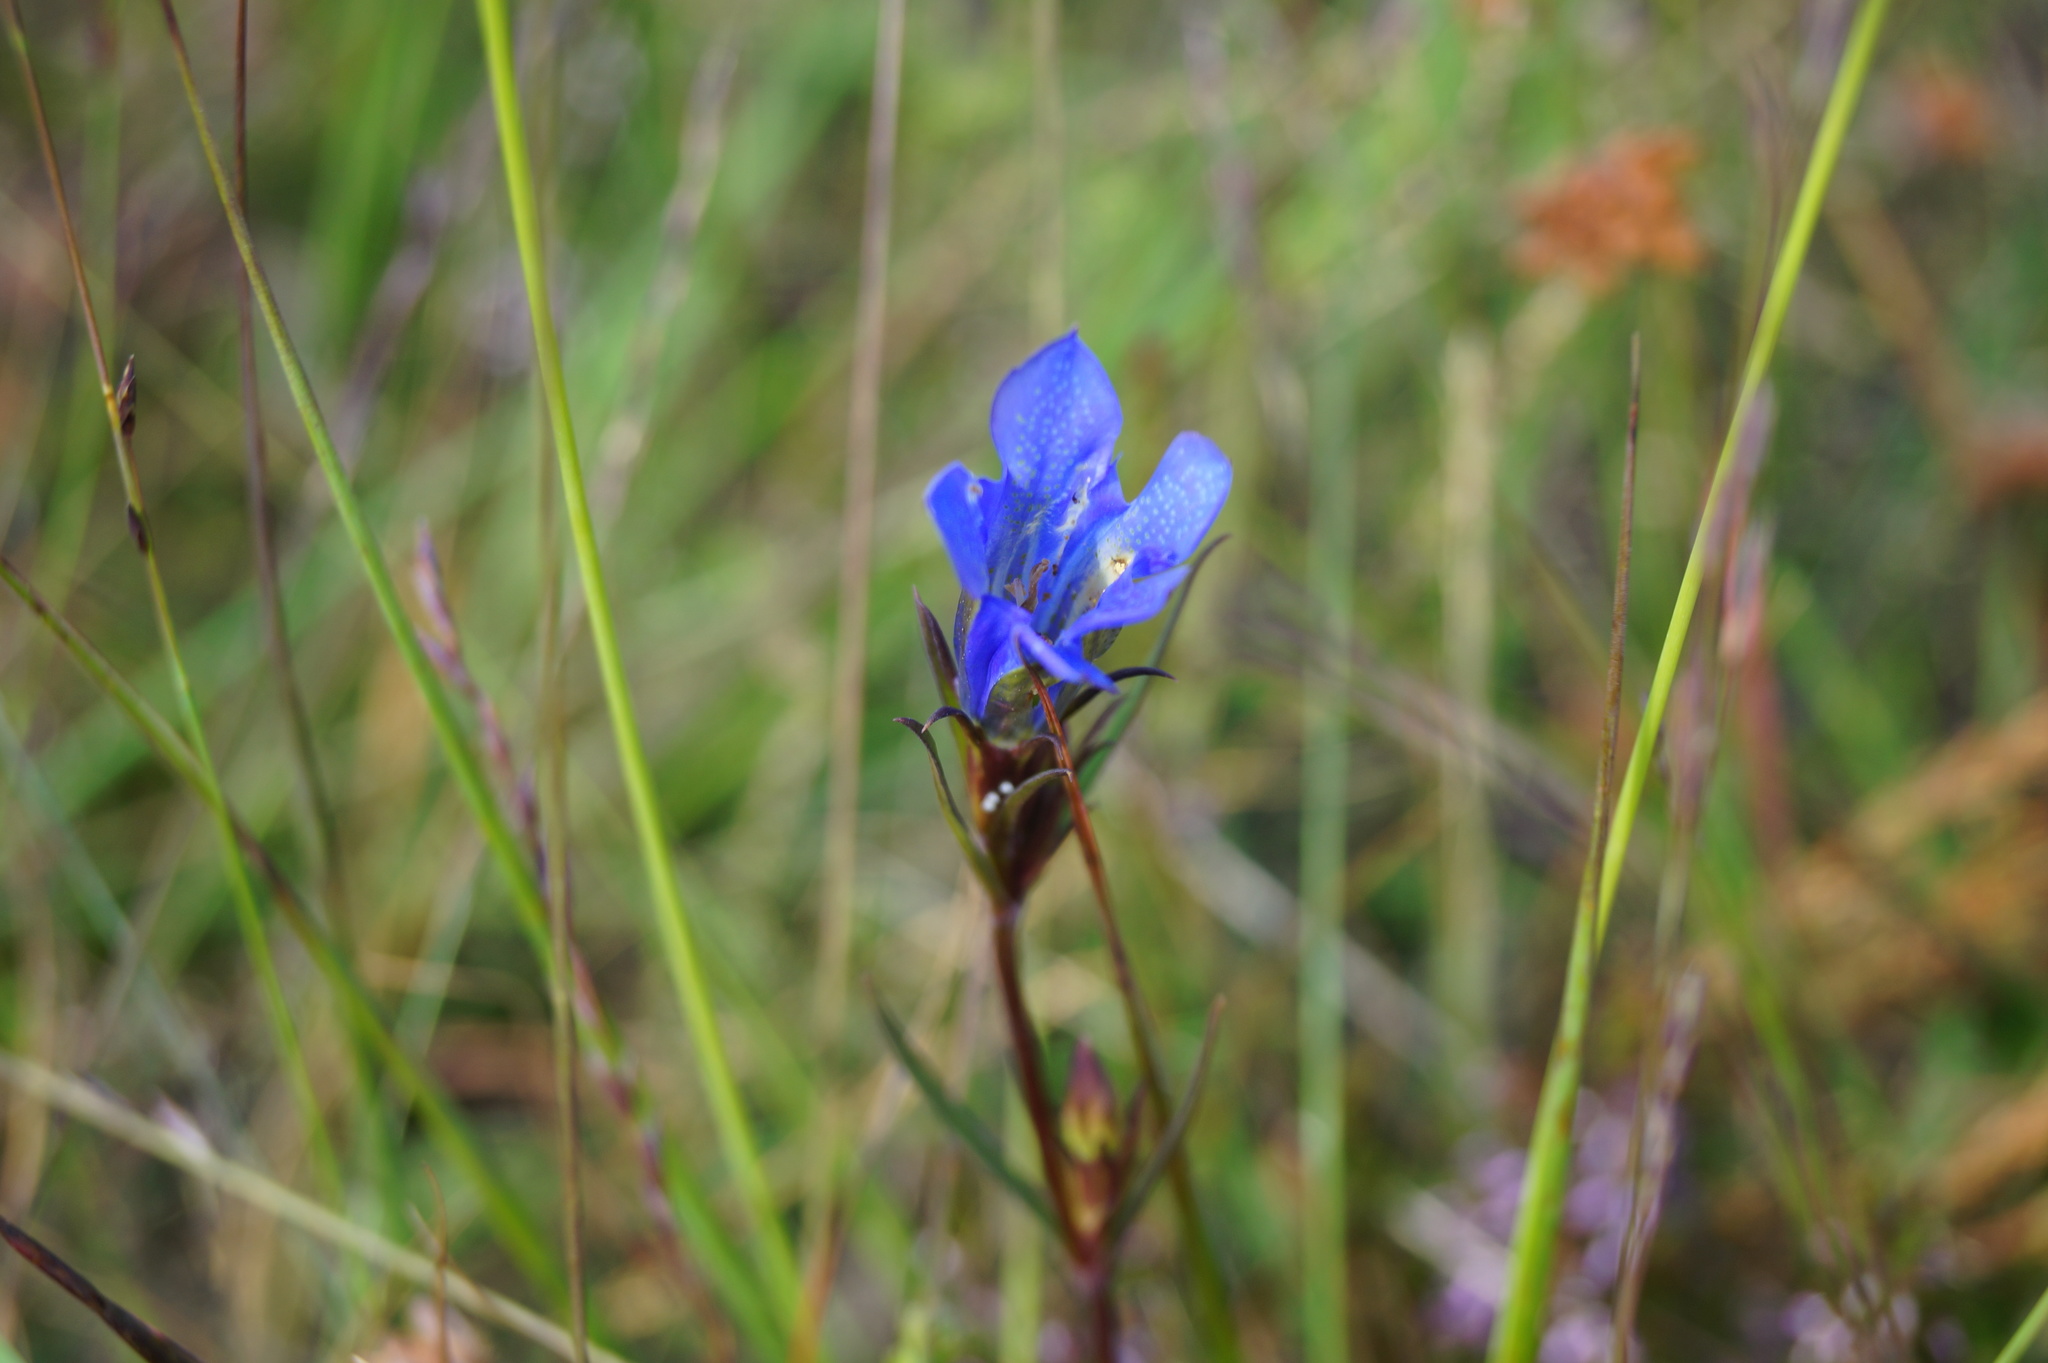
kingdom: Plantae
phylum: Tracheophyta
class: Magnoliopsida
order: Gentianales
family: Gentianaceae
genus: Gentiana
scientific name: Gentiana pneumonanthe
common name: Marsh gentian
